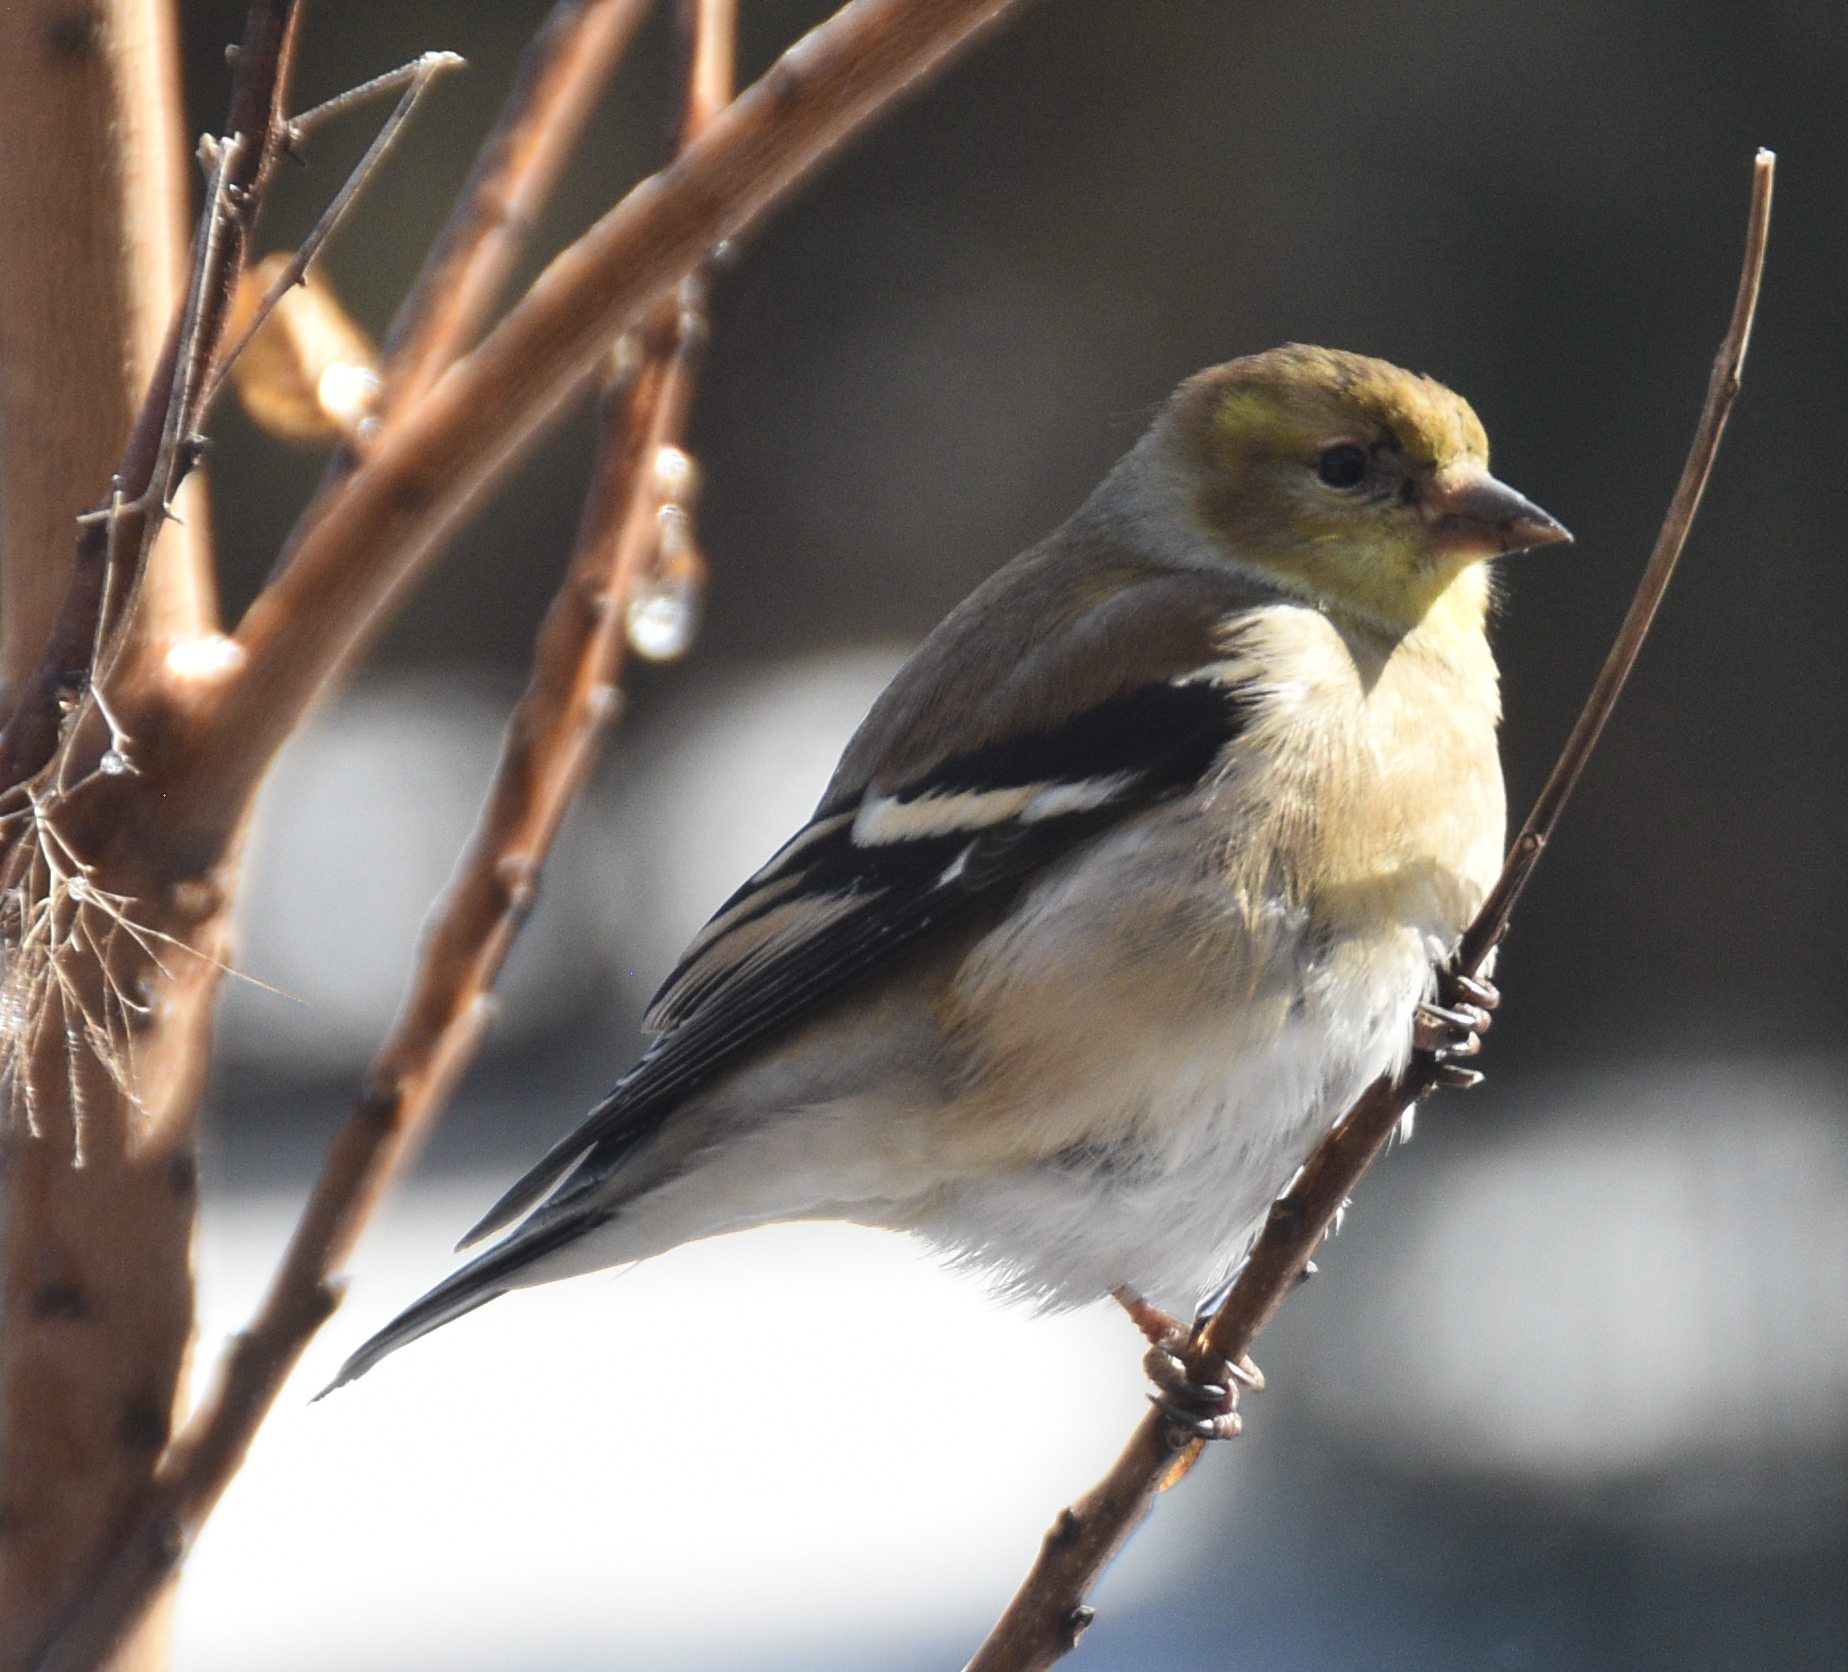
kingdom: Animalia
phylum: Chordata
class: Aves
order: Passeriformes
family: Fringillidae
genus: Spinus
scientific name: Spinus tristis
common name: American goldfinch
